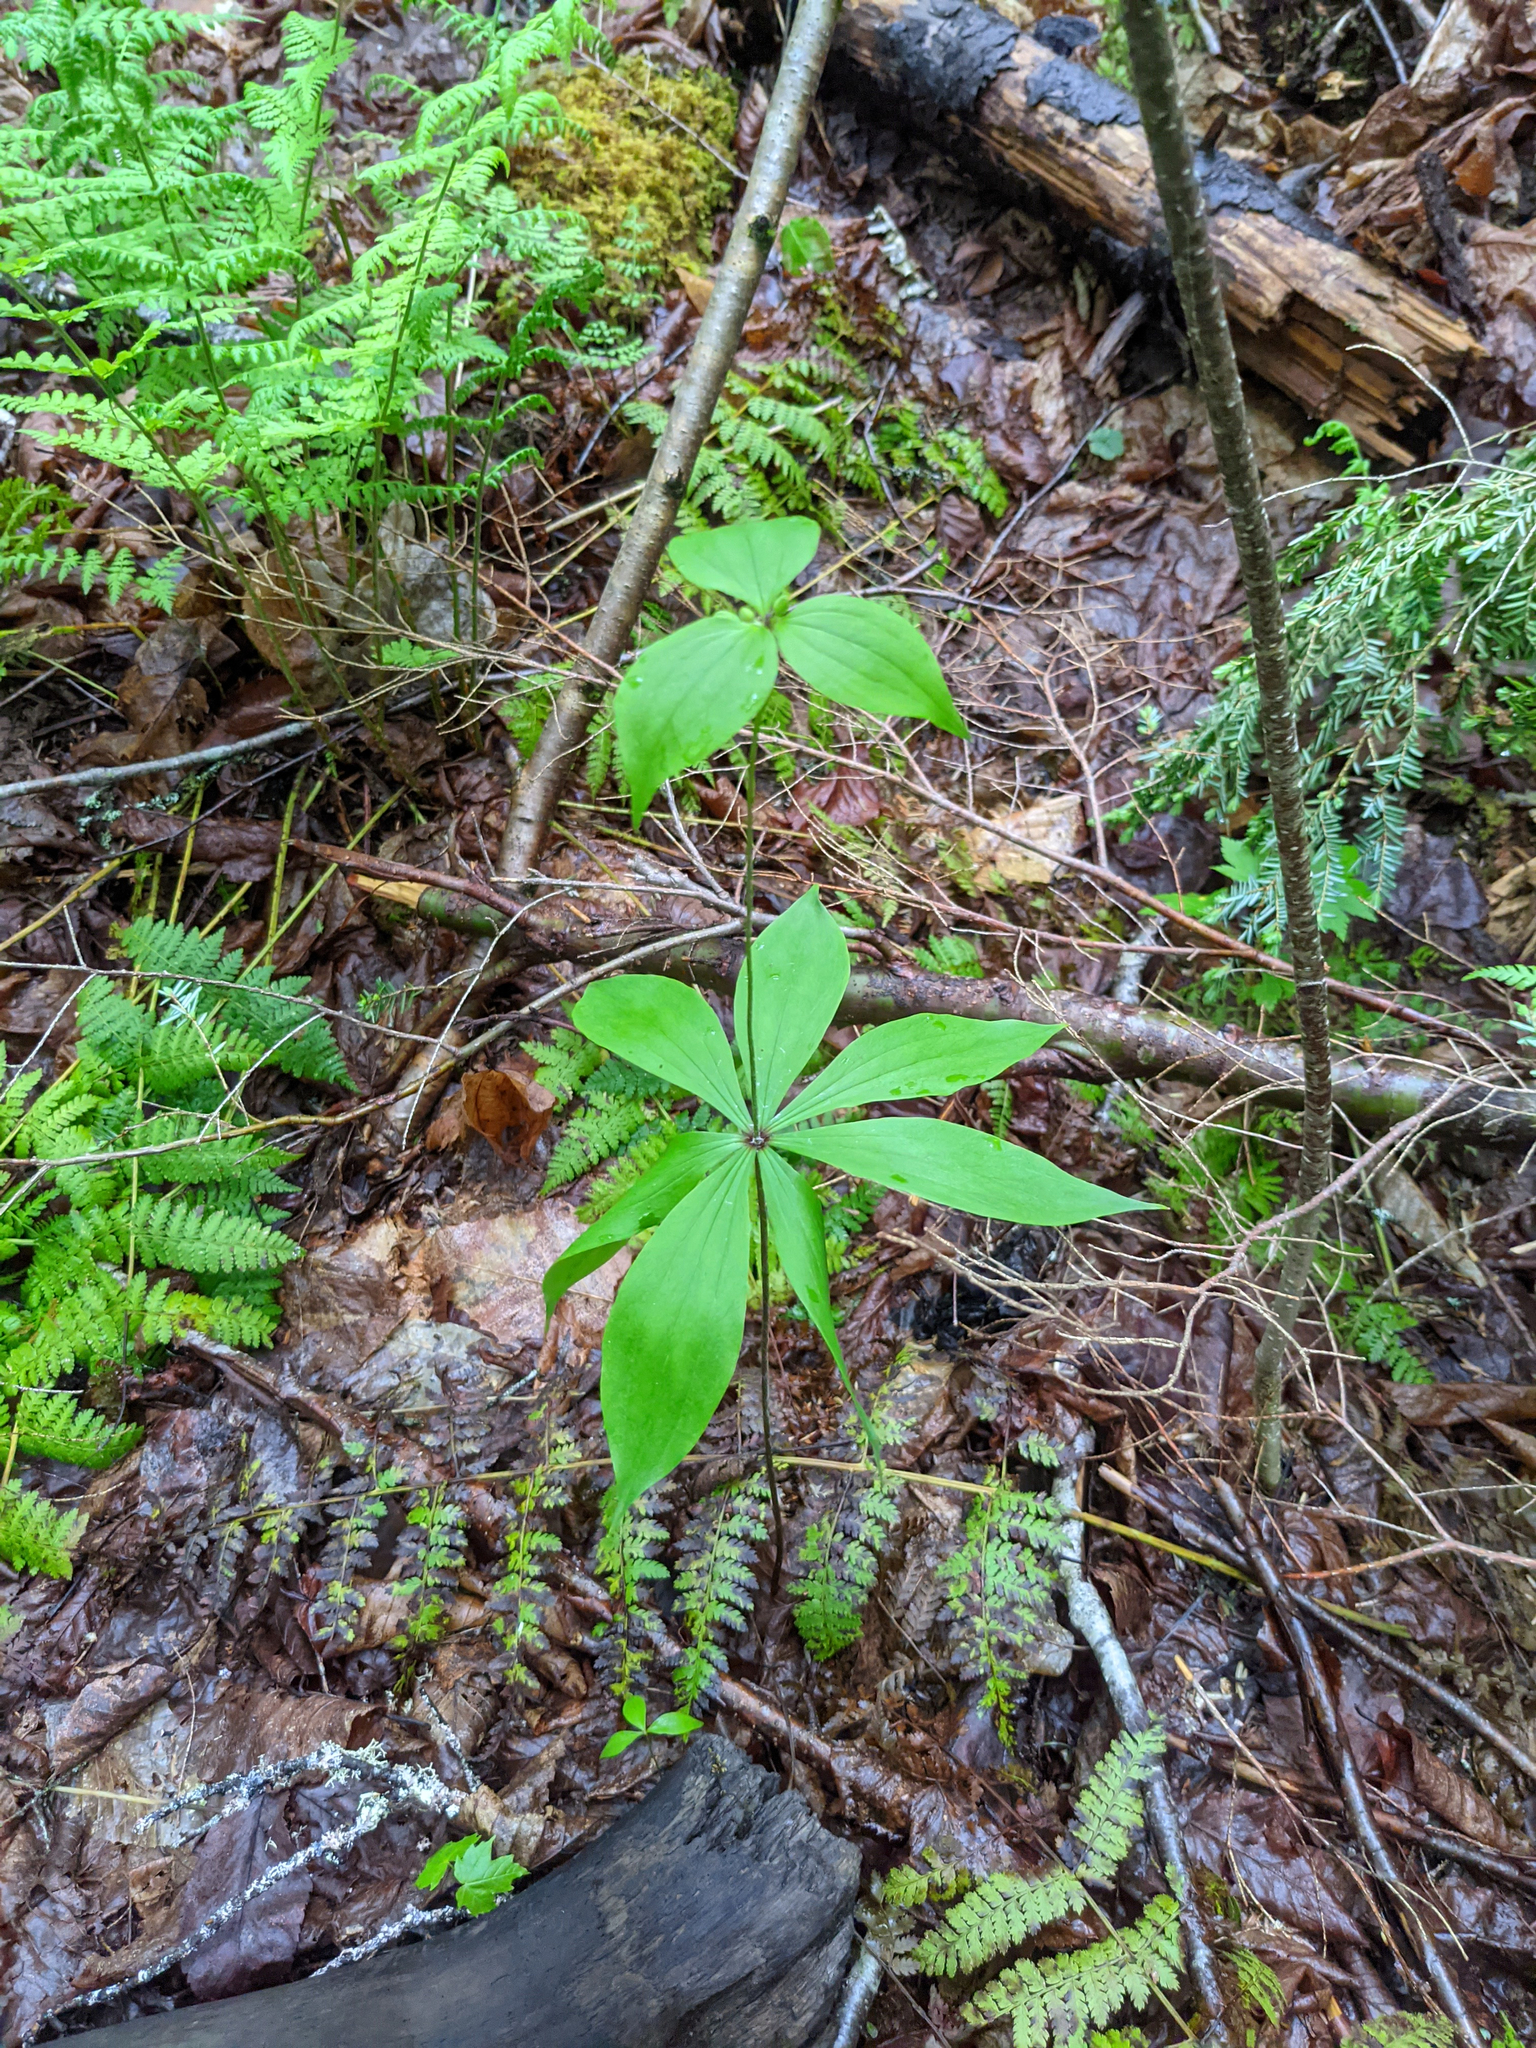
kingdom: Plantae
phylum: Tracheophyta
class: Liliopsida
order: Liliales
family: Liliaceae
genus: Medeola
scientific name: Medeola virginiana
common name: Indian cucumber-root
